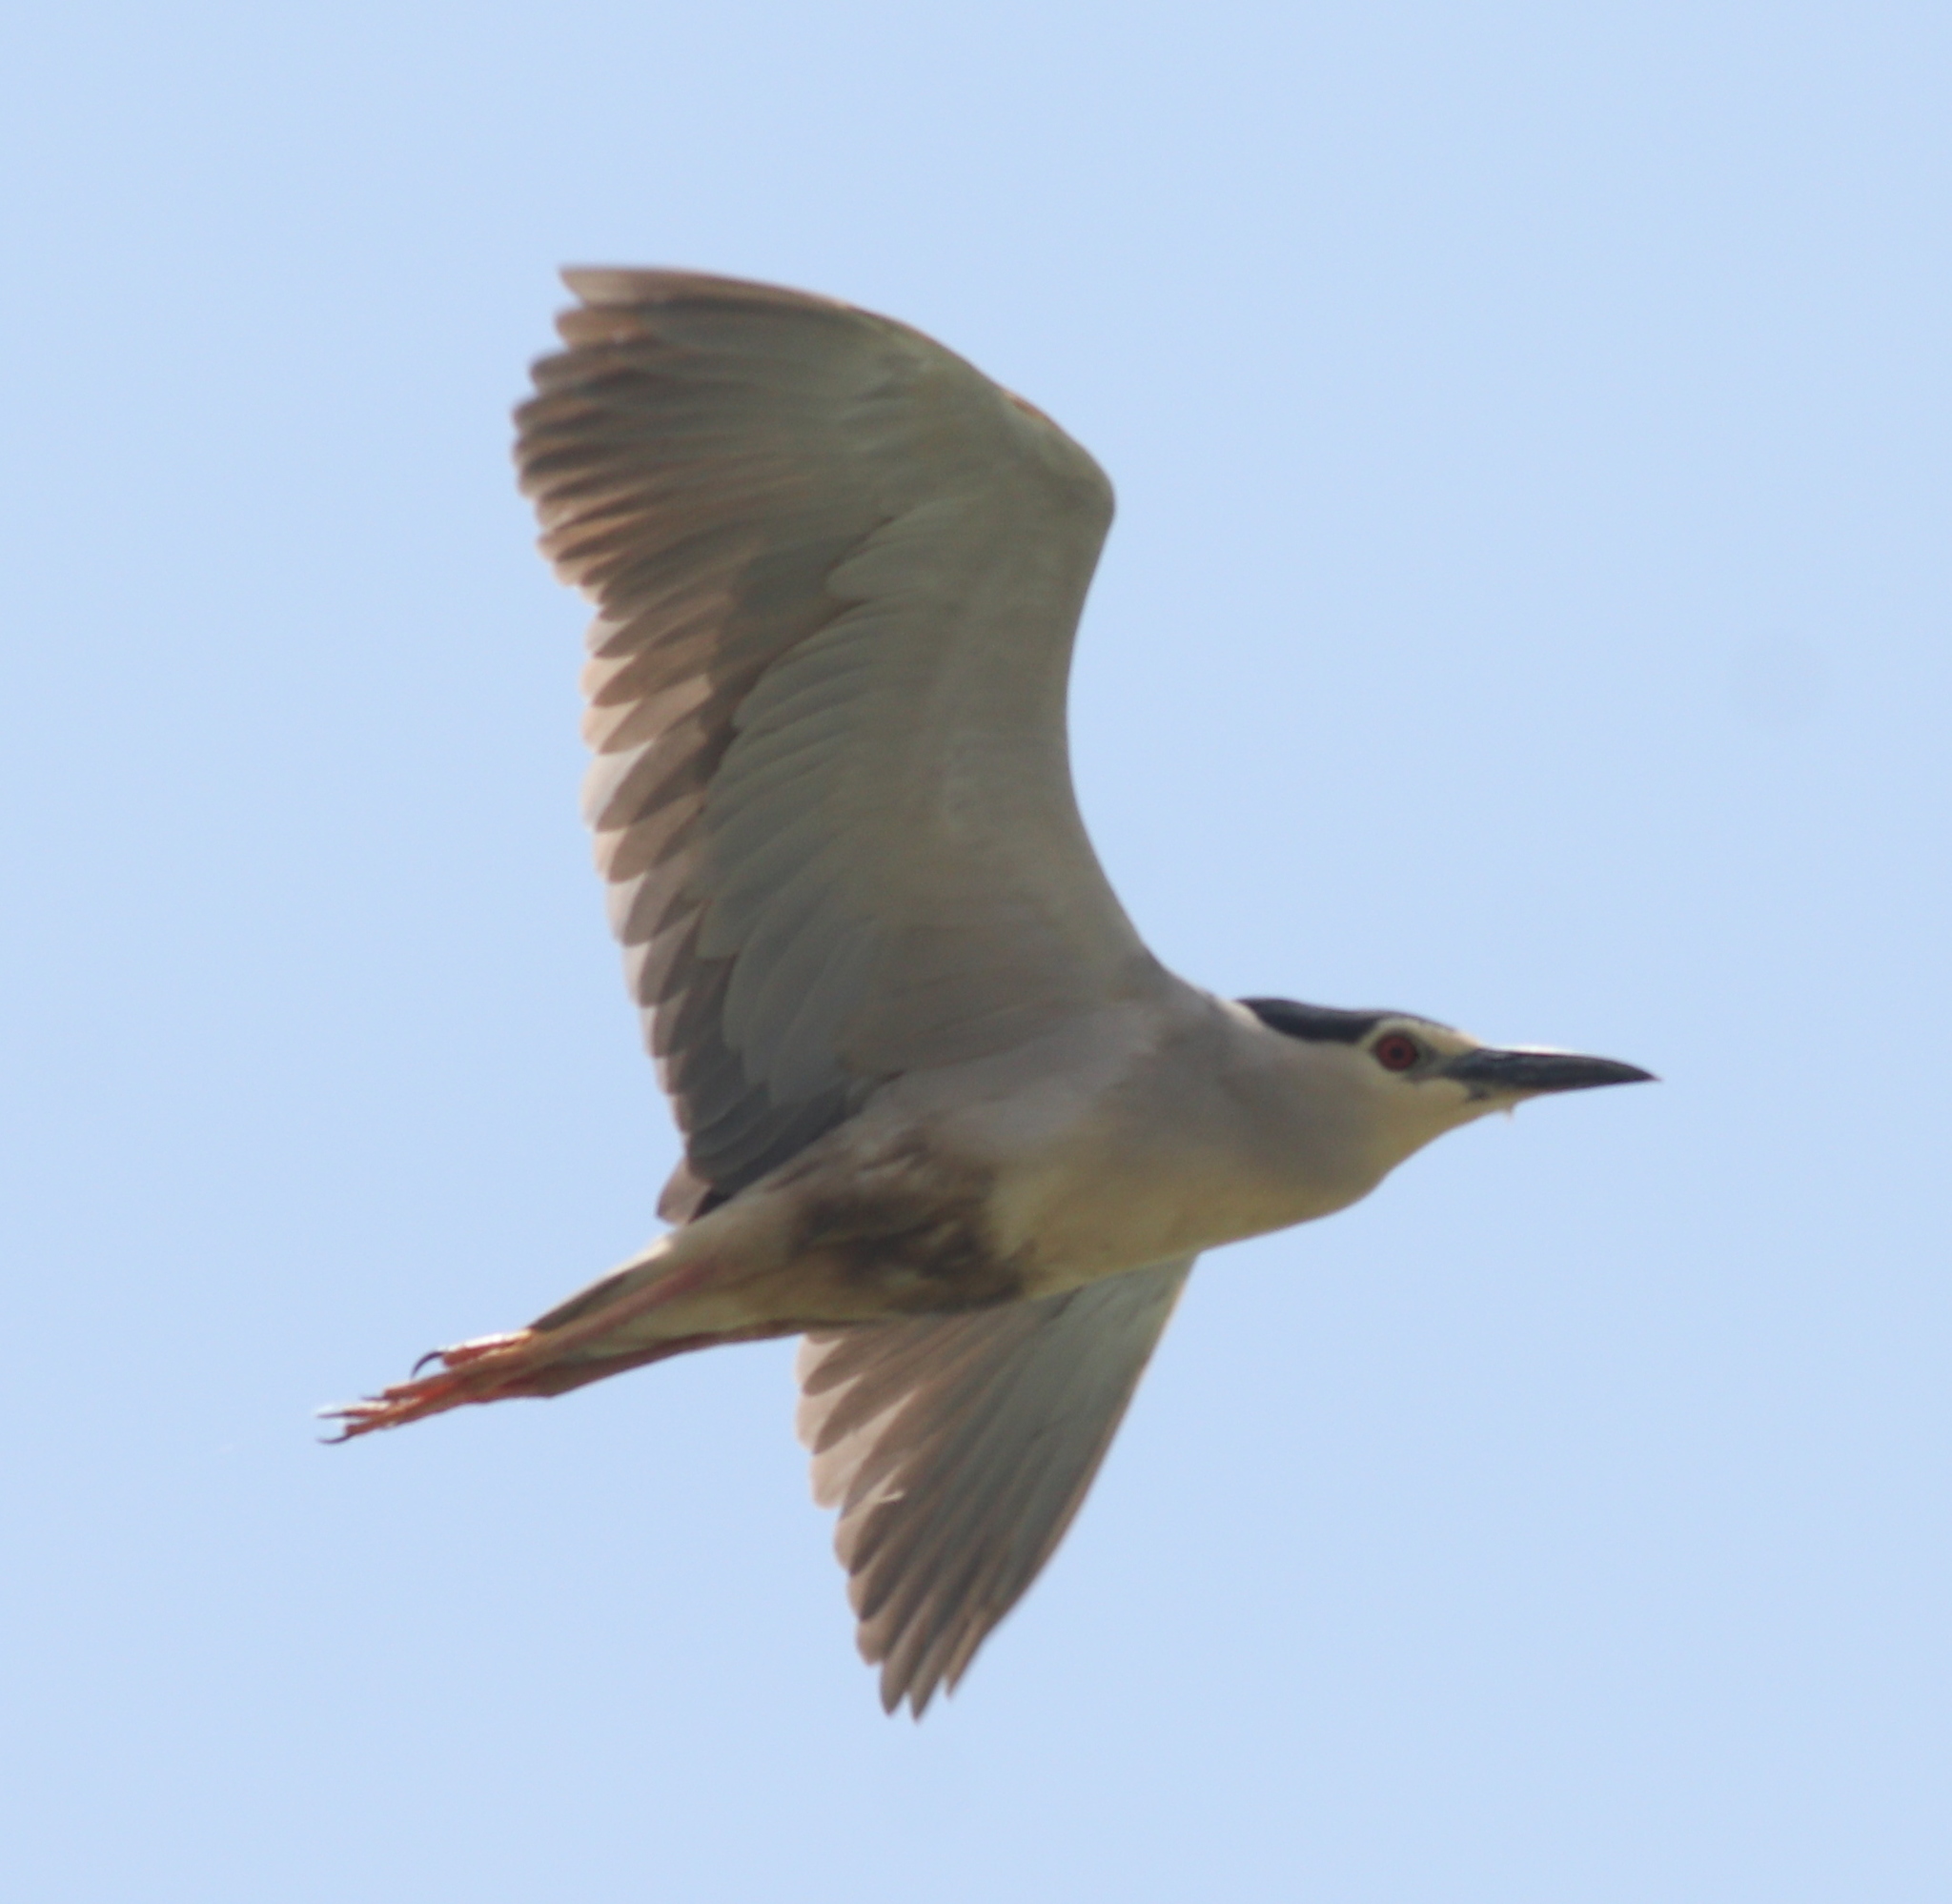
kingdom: Animalia
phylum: Chordata
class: Aves
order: Pelecaniformes
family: Ardeidae
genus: Nycticorax
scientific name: Nycticorax nycticorax
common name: Black-crowned night heron
